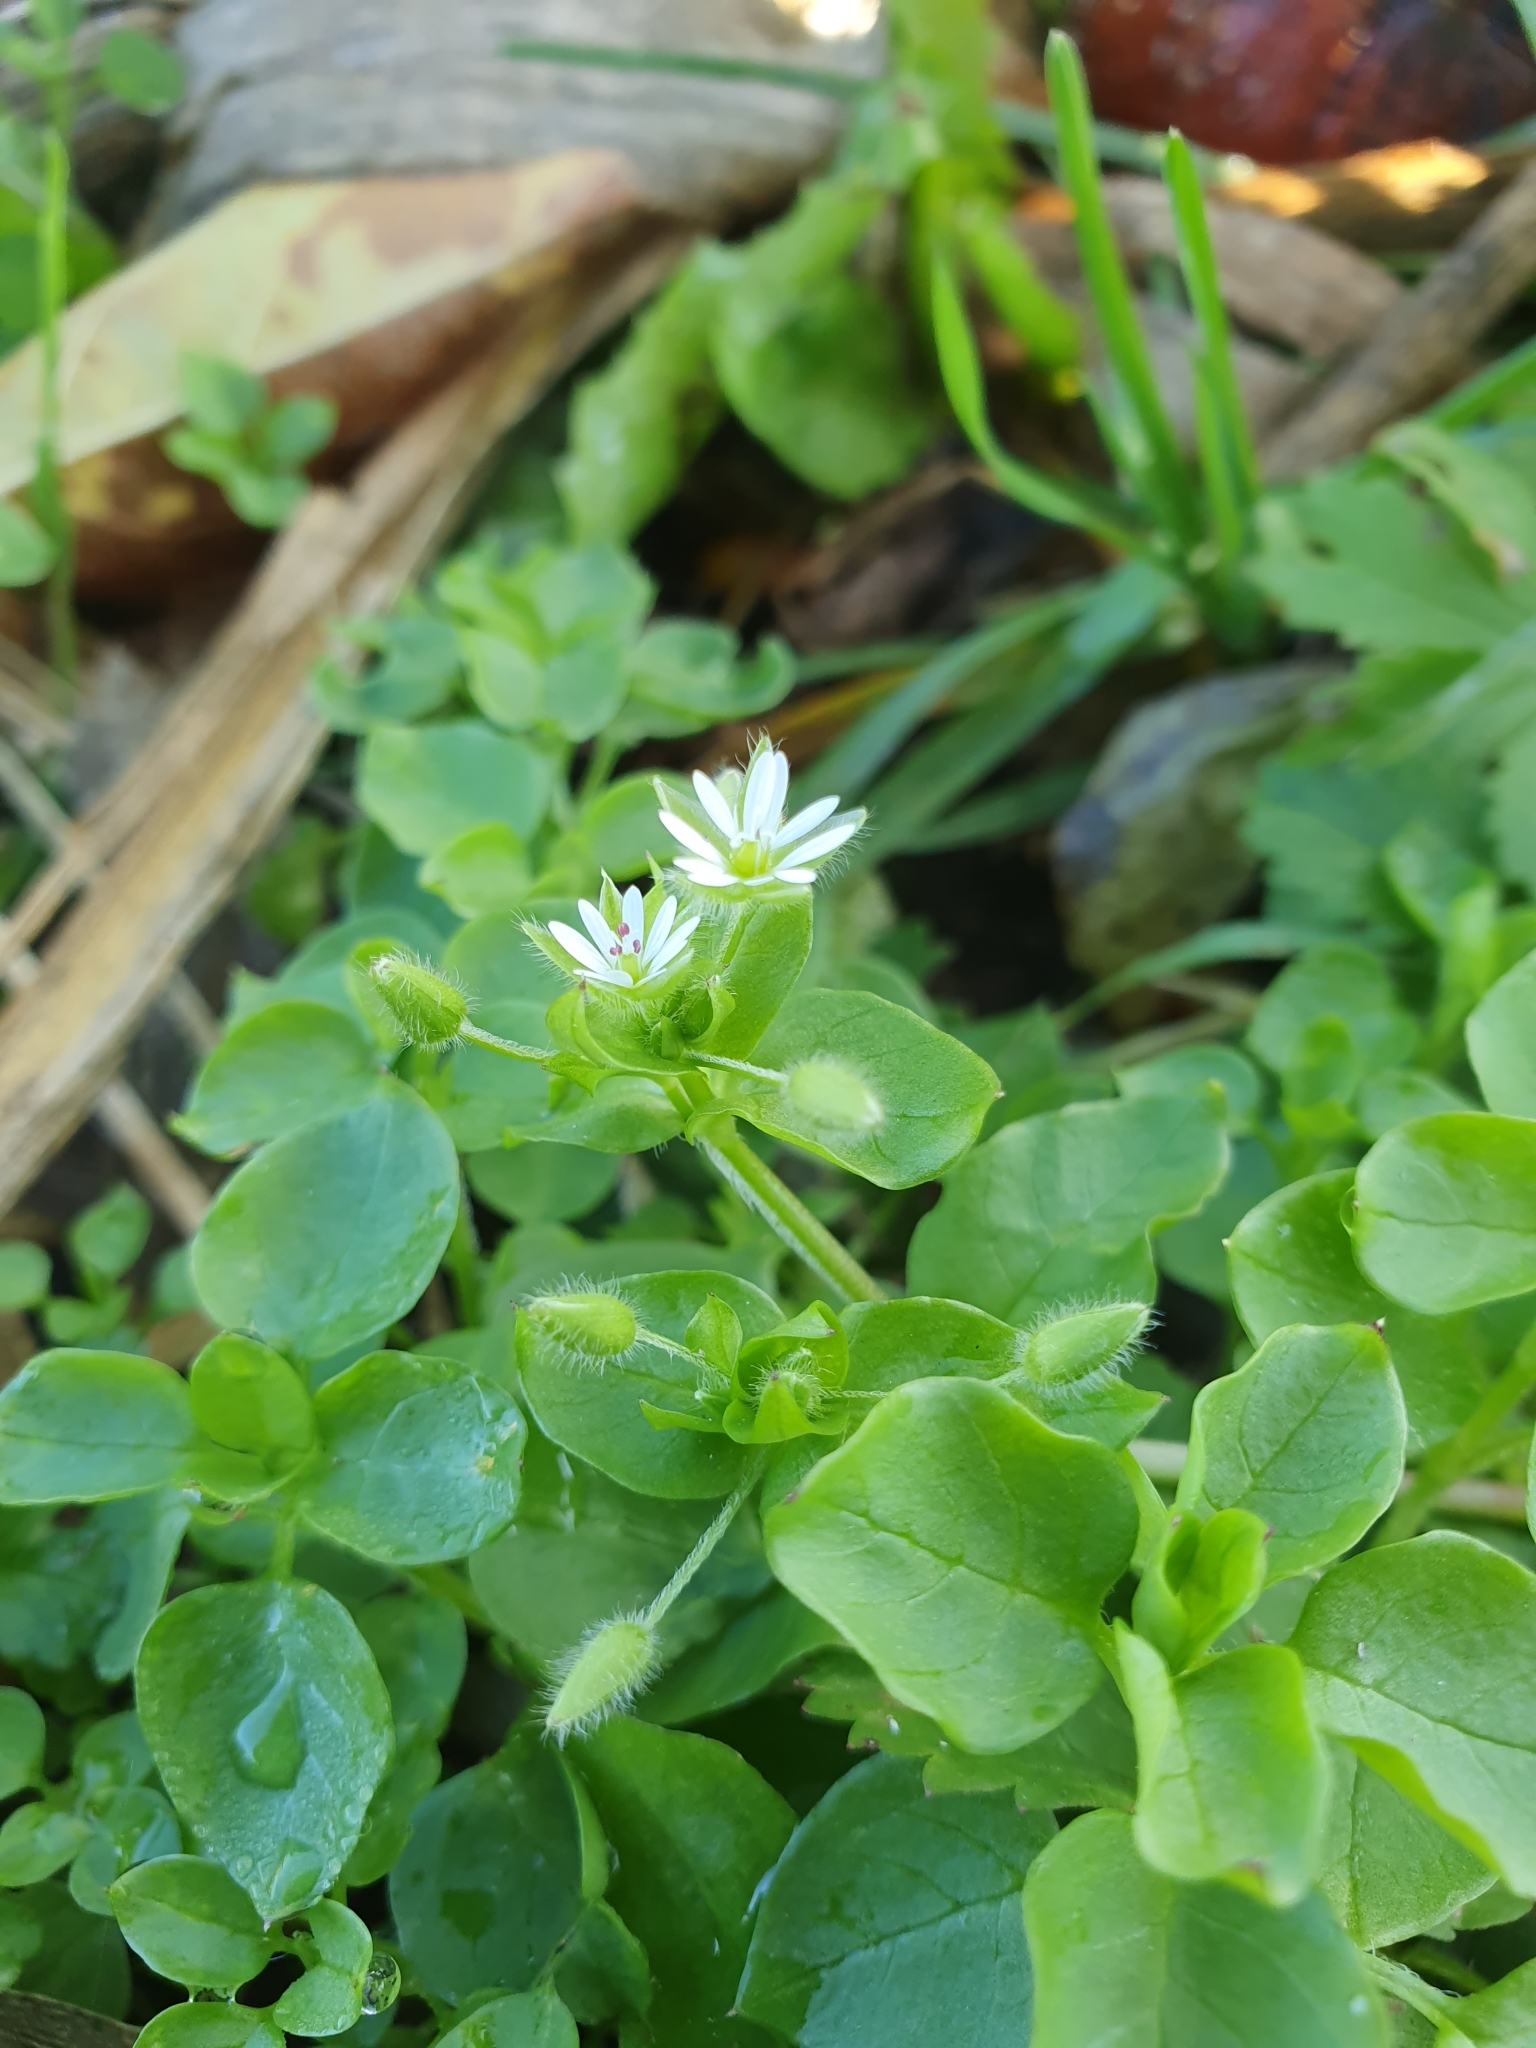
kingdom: Plantae
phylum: Tracheophyta
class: Magnoliopsida
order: Caryophyllales
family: Caryophyllaceae
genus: Stellaria
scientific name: Stellaria media
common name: Common chickweed
